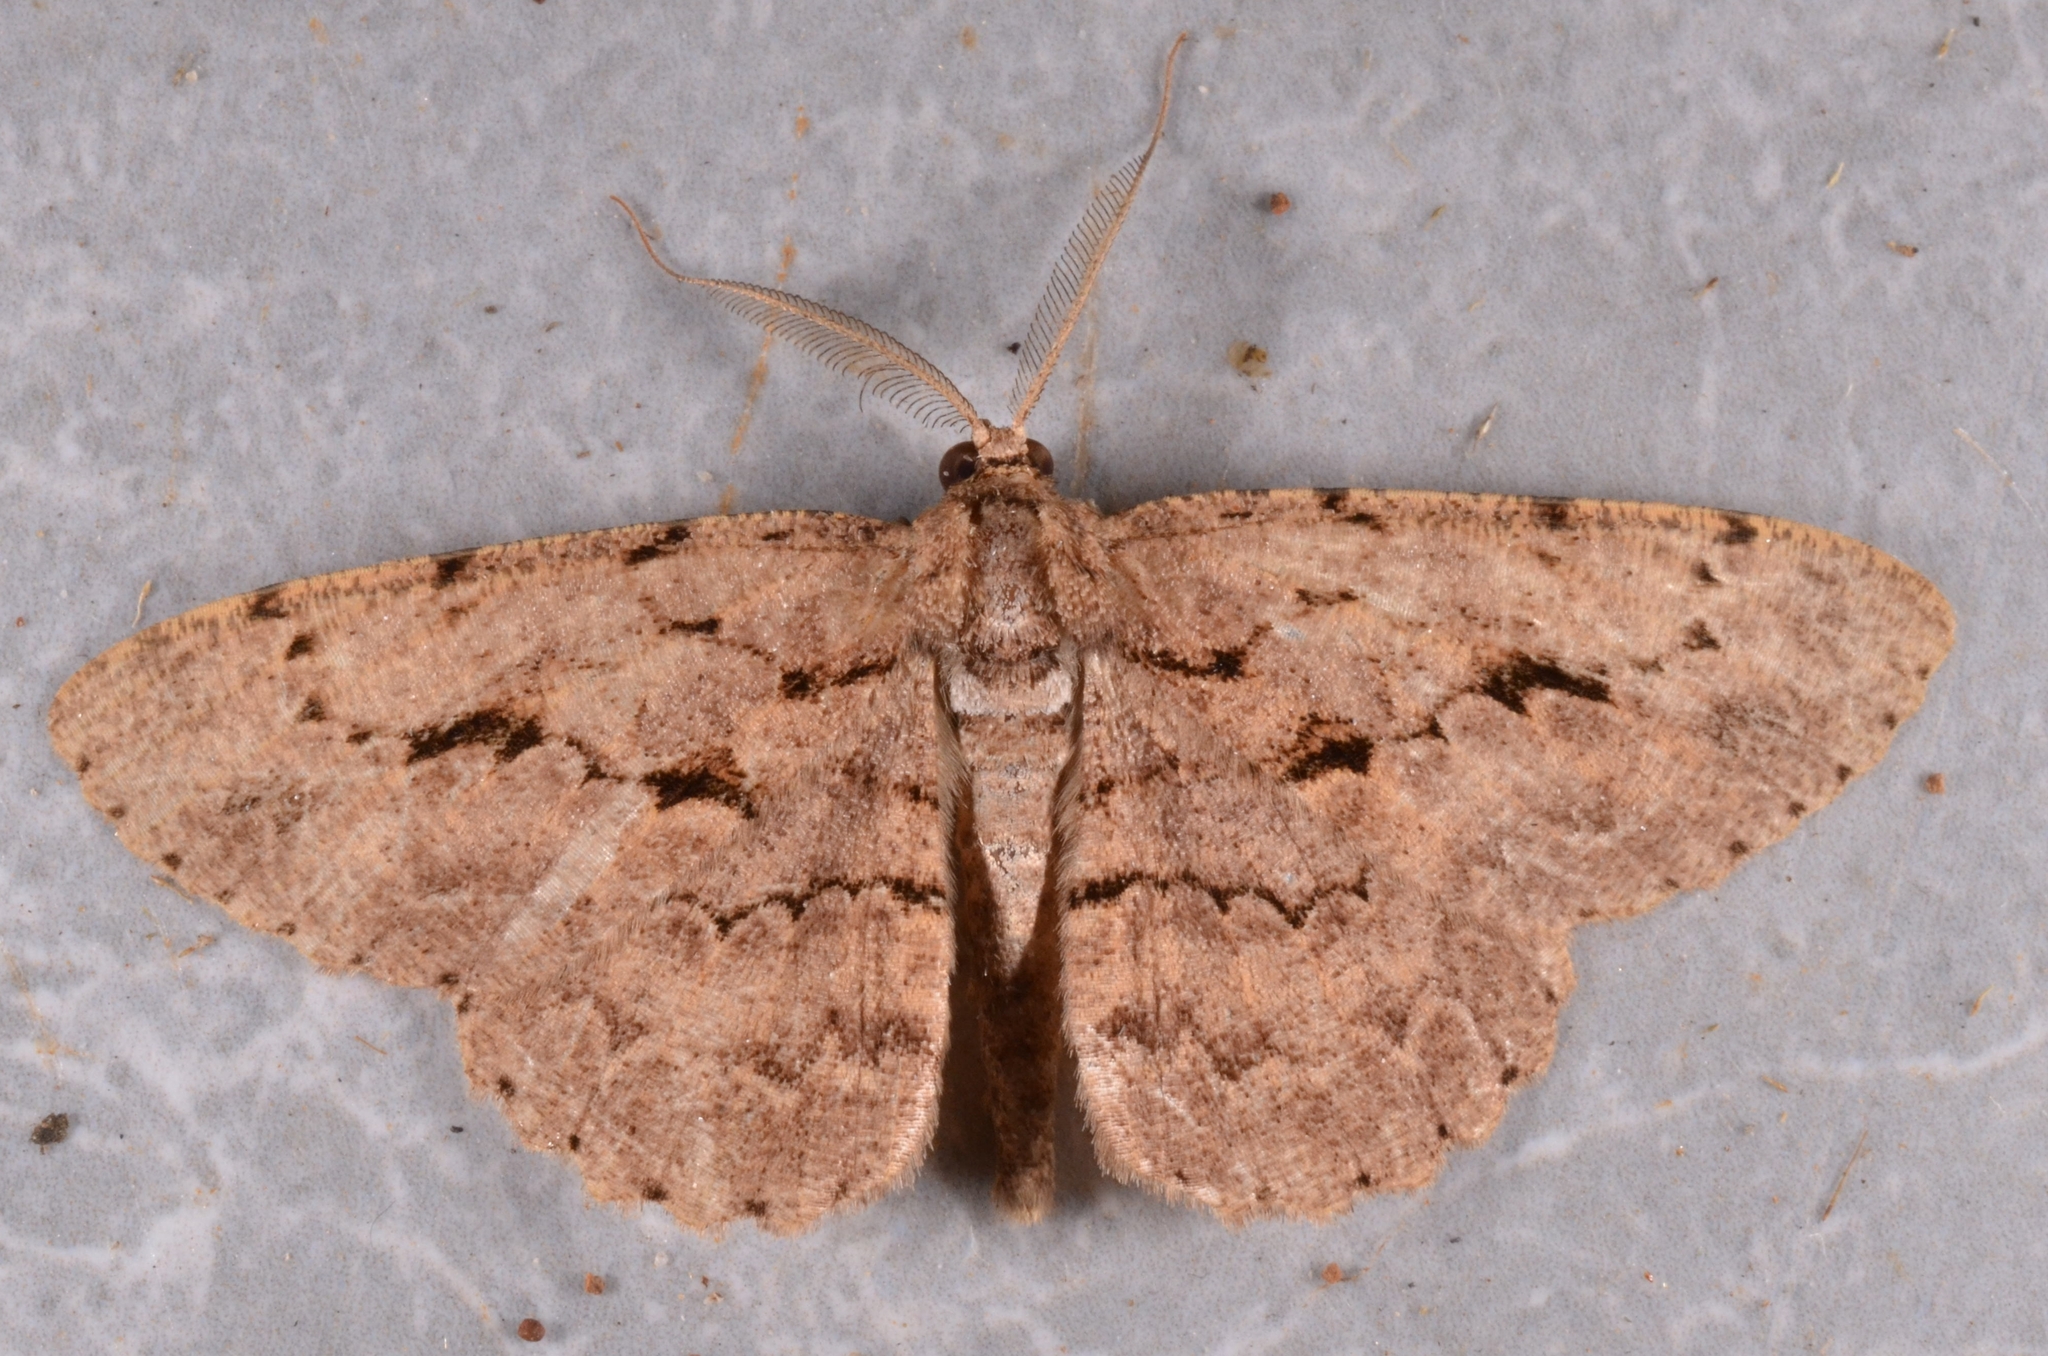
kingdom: Animalia
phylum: Arthropoda
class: Insecta
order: Lepidoptera
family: Geometridae
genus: Hypomecis
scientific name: Hypomecis costaria
